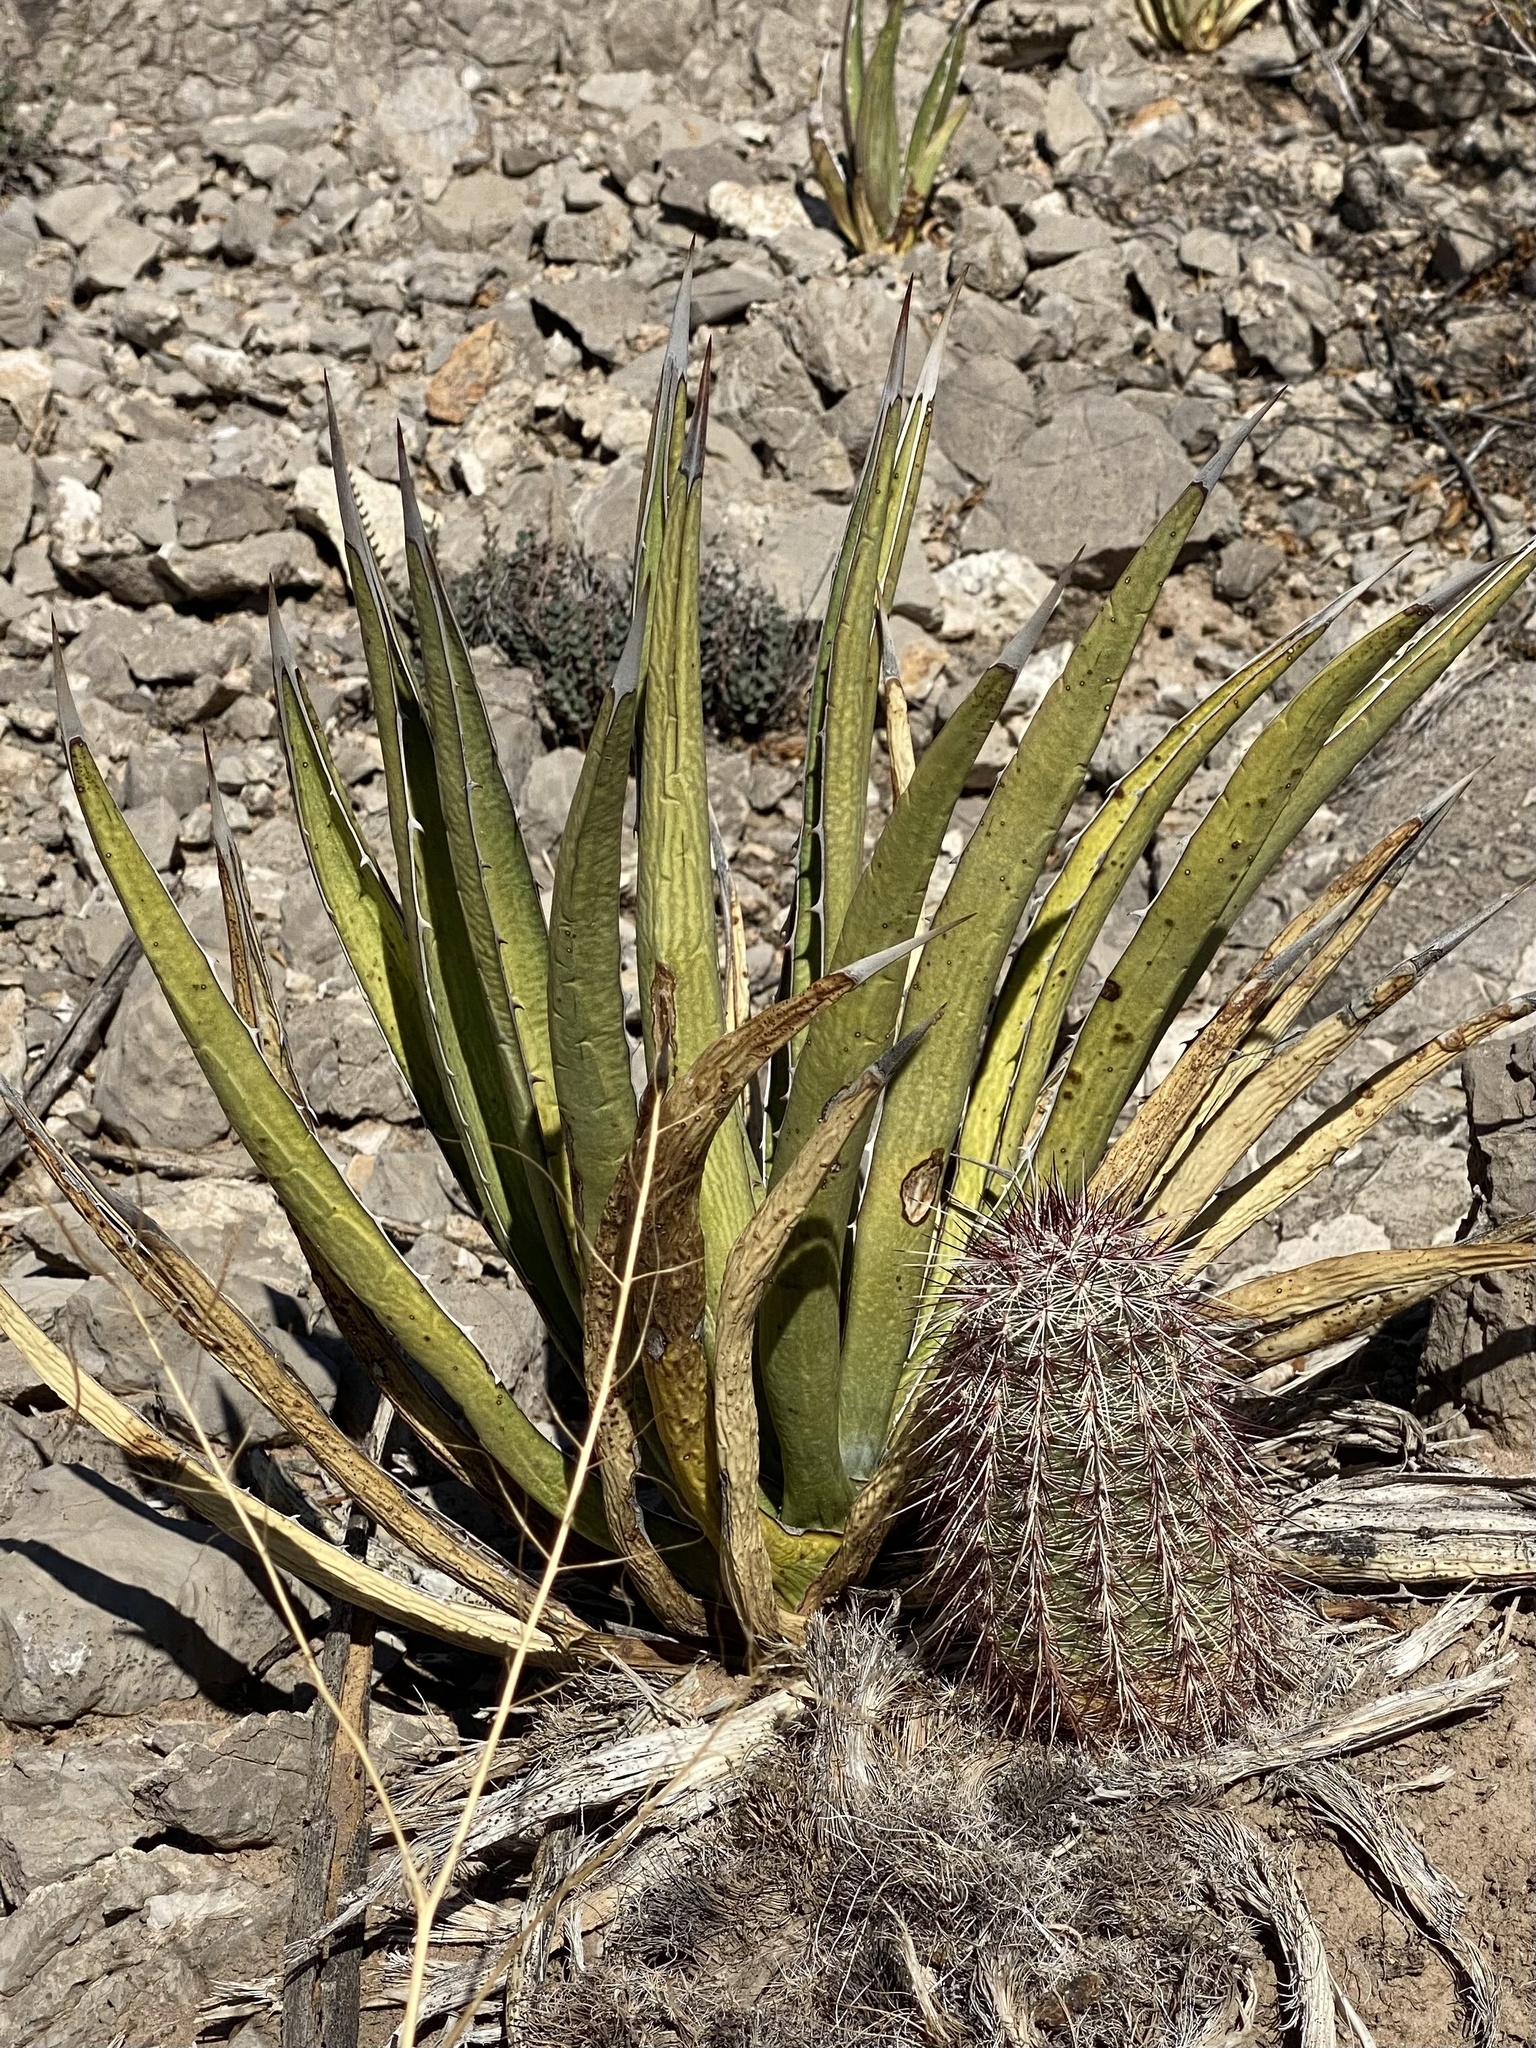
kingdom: Plantae
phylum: Tracheophyta
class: Liliopsida
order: Asparagales
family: Asparagaceae
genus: Agave
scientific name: Agave lechuguilla
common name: Lecheguilla agave
